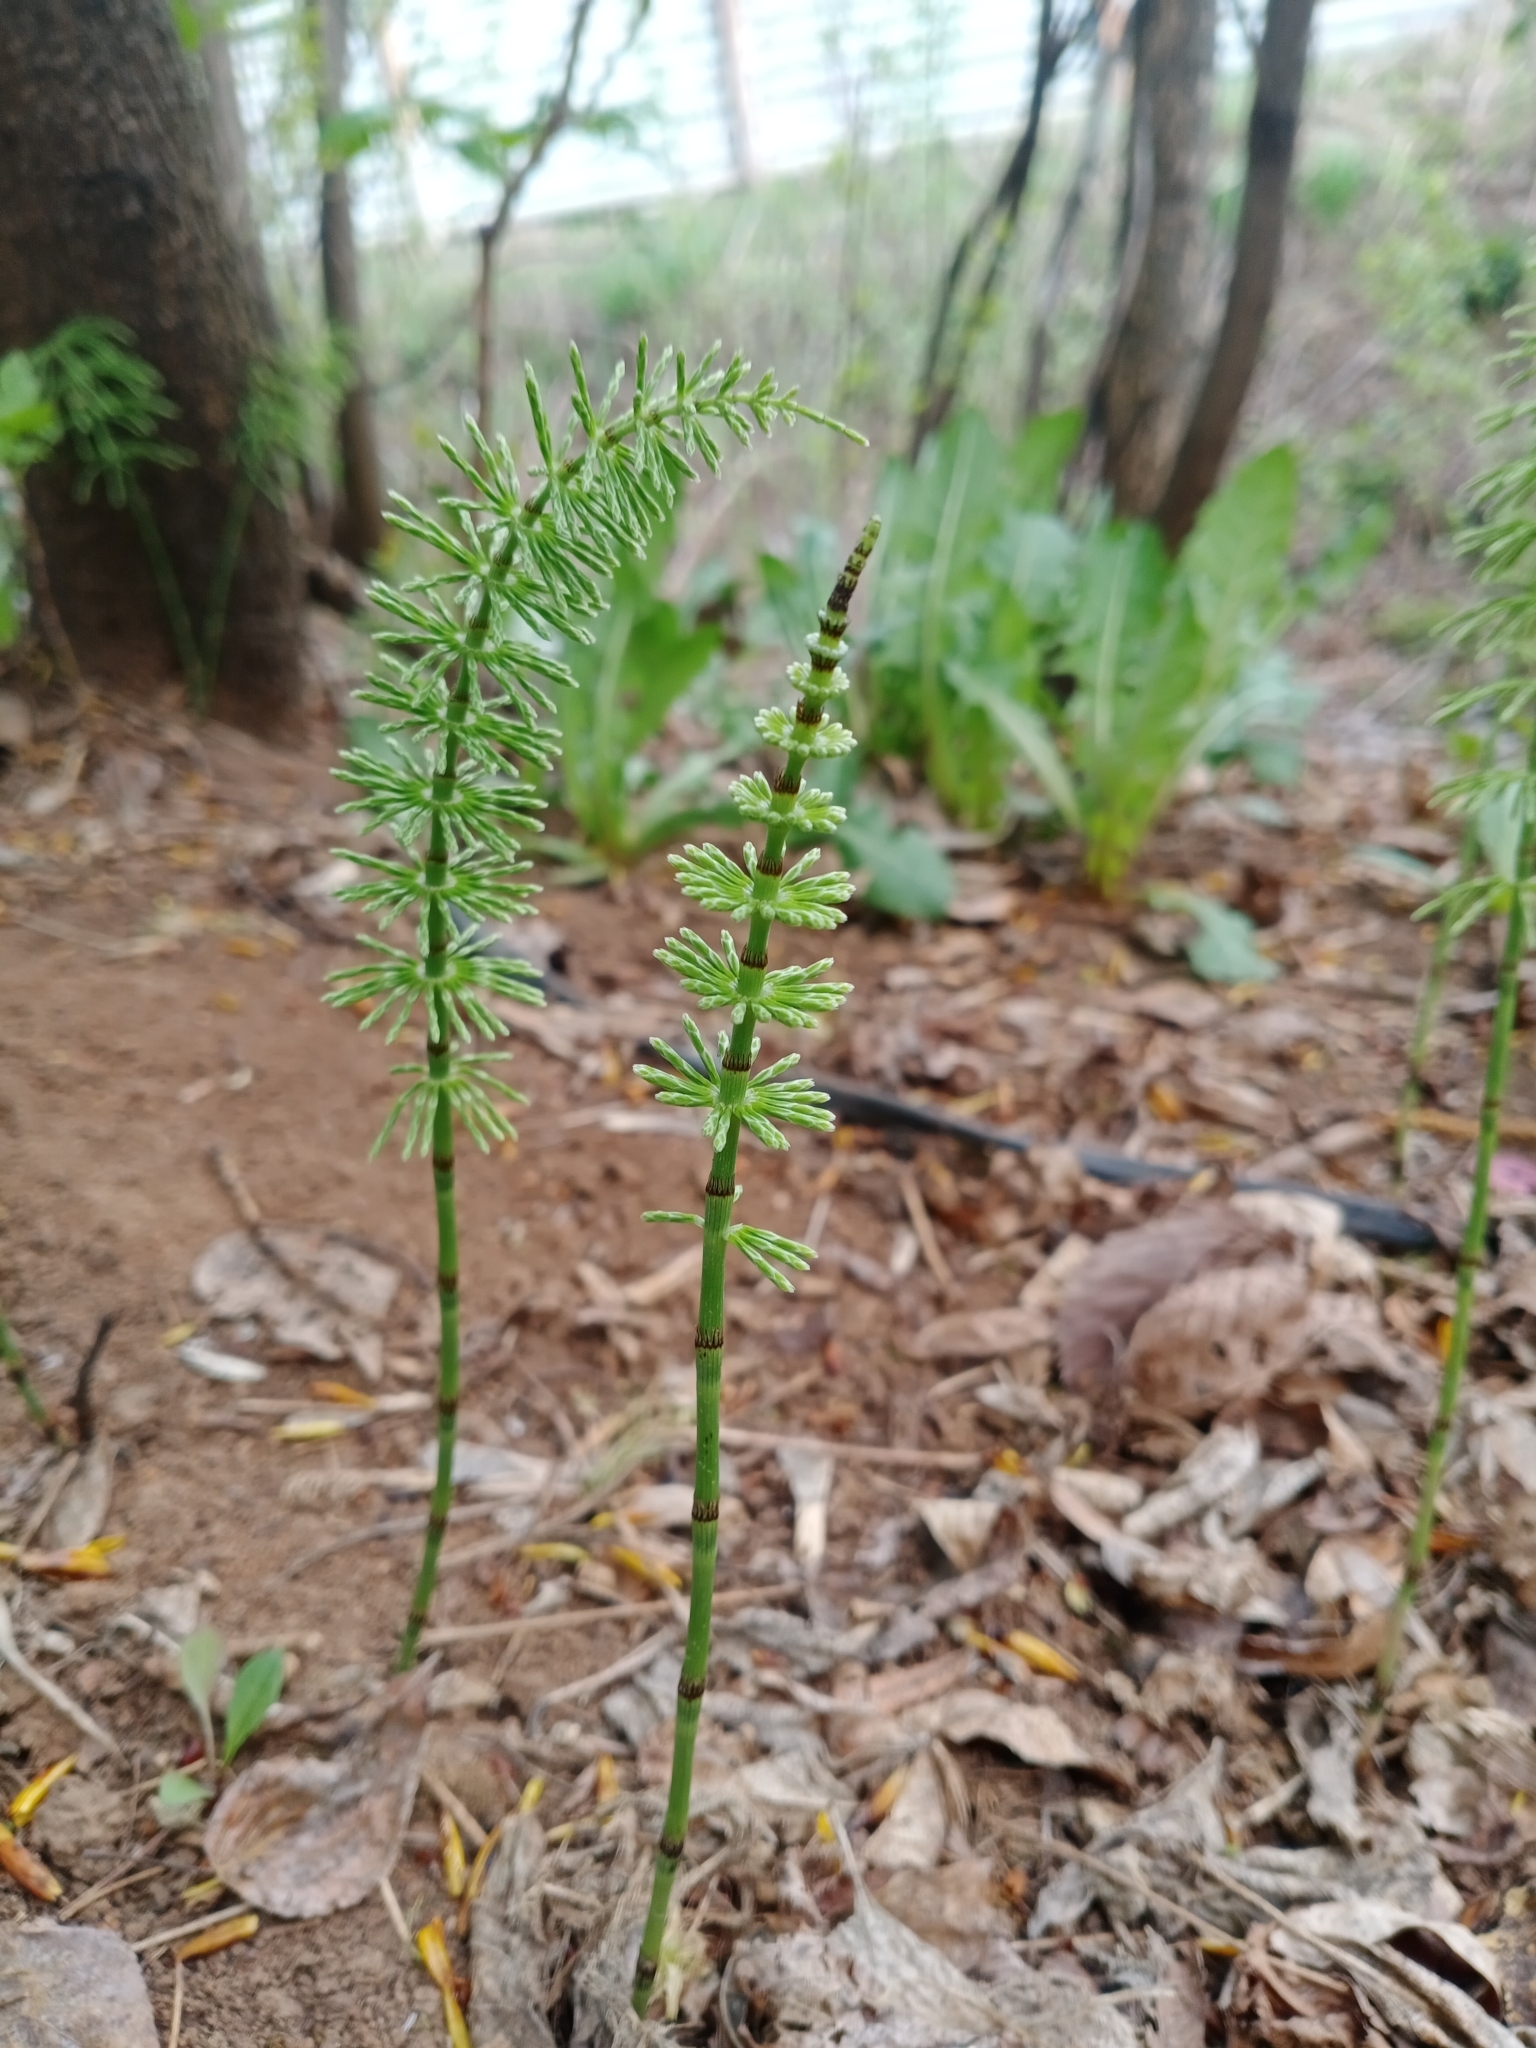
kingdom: Plantae
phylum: Tracheophyta
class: Polypodiopsida
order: Equisetales
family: Equisetaceae
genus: Equisetum
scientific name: Equisetum pratense
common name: Meadow horsetail
